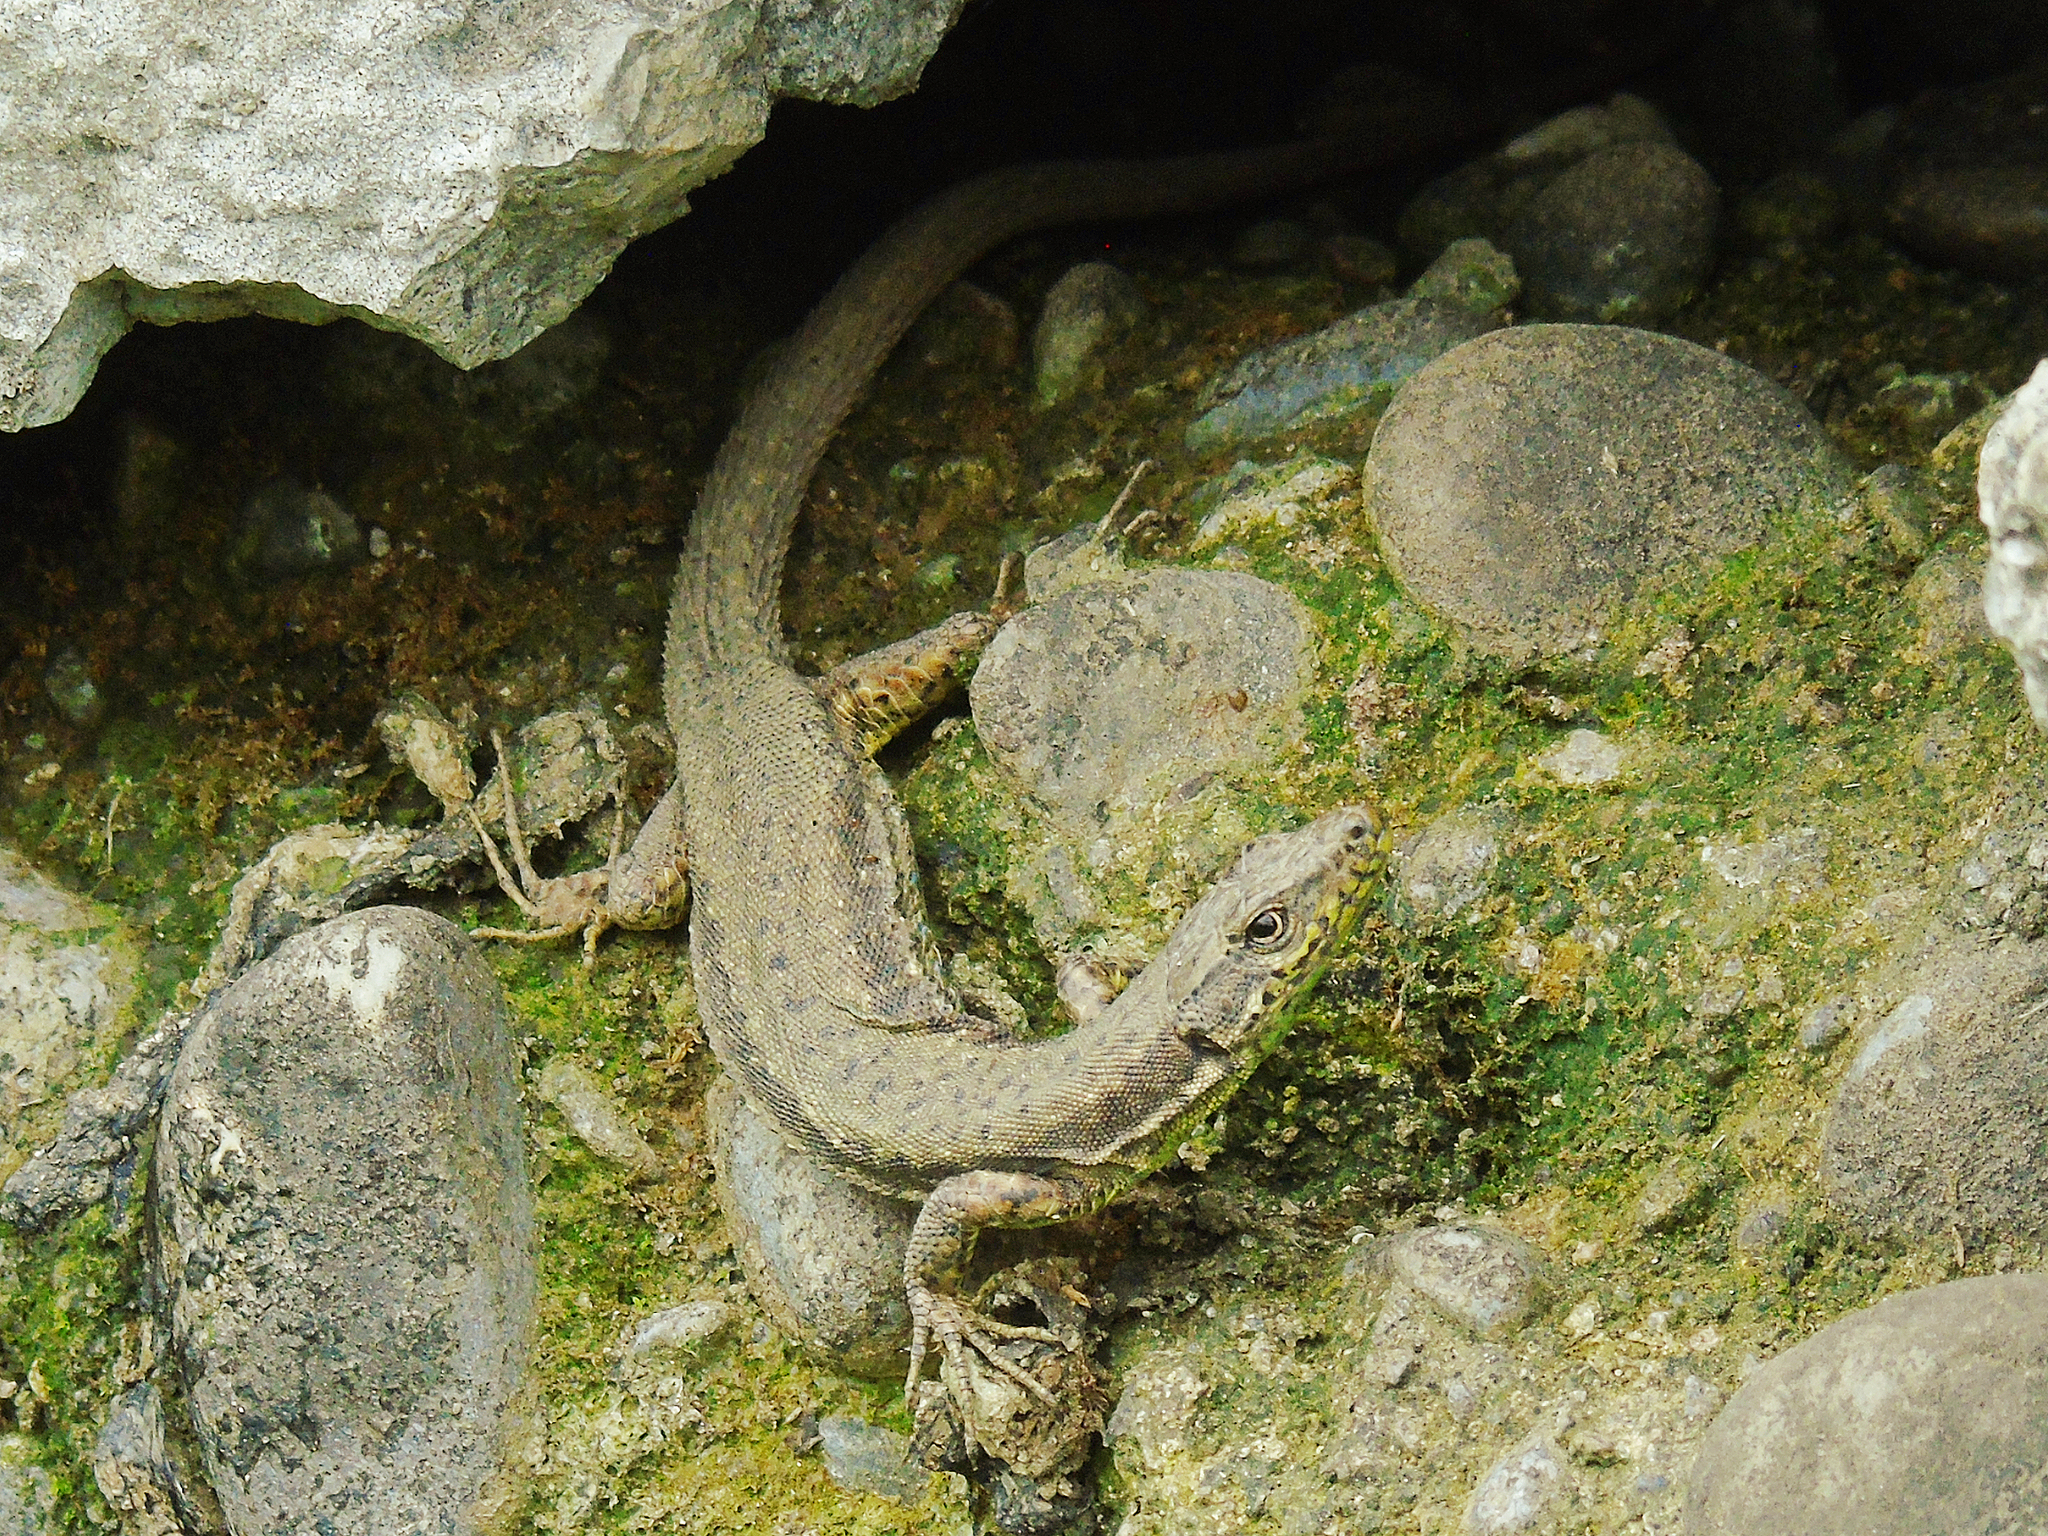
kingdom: Animalia
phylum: Chordata
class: Squamata
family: Lacertidae
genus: Darevskia
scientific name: Darevskia rudis
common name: Spiny-tailed lizard
